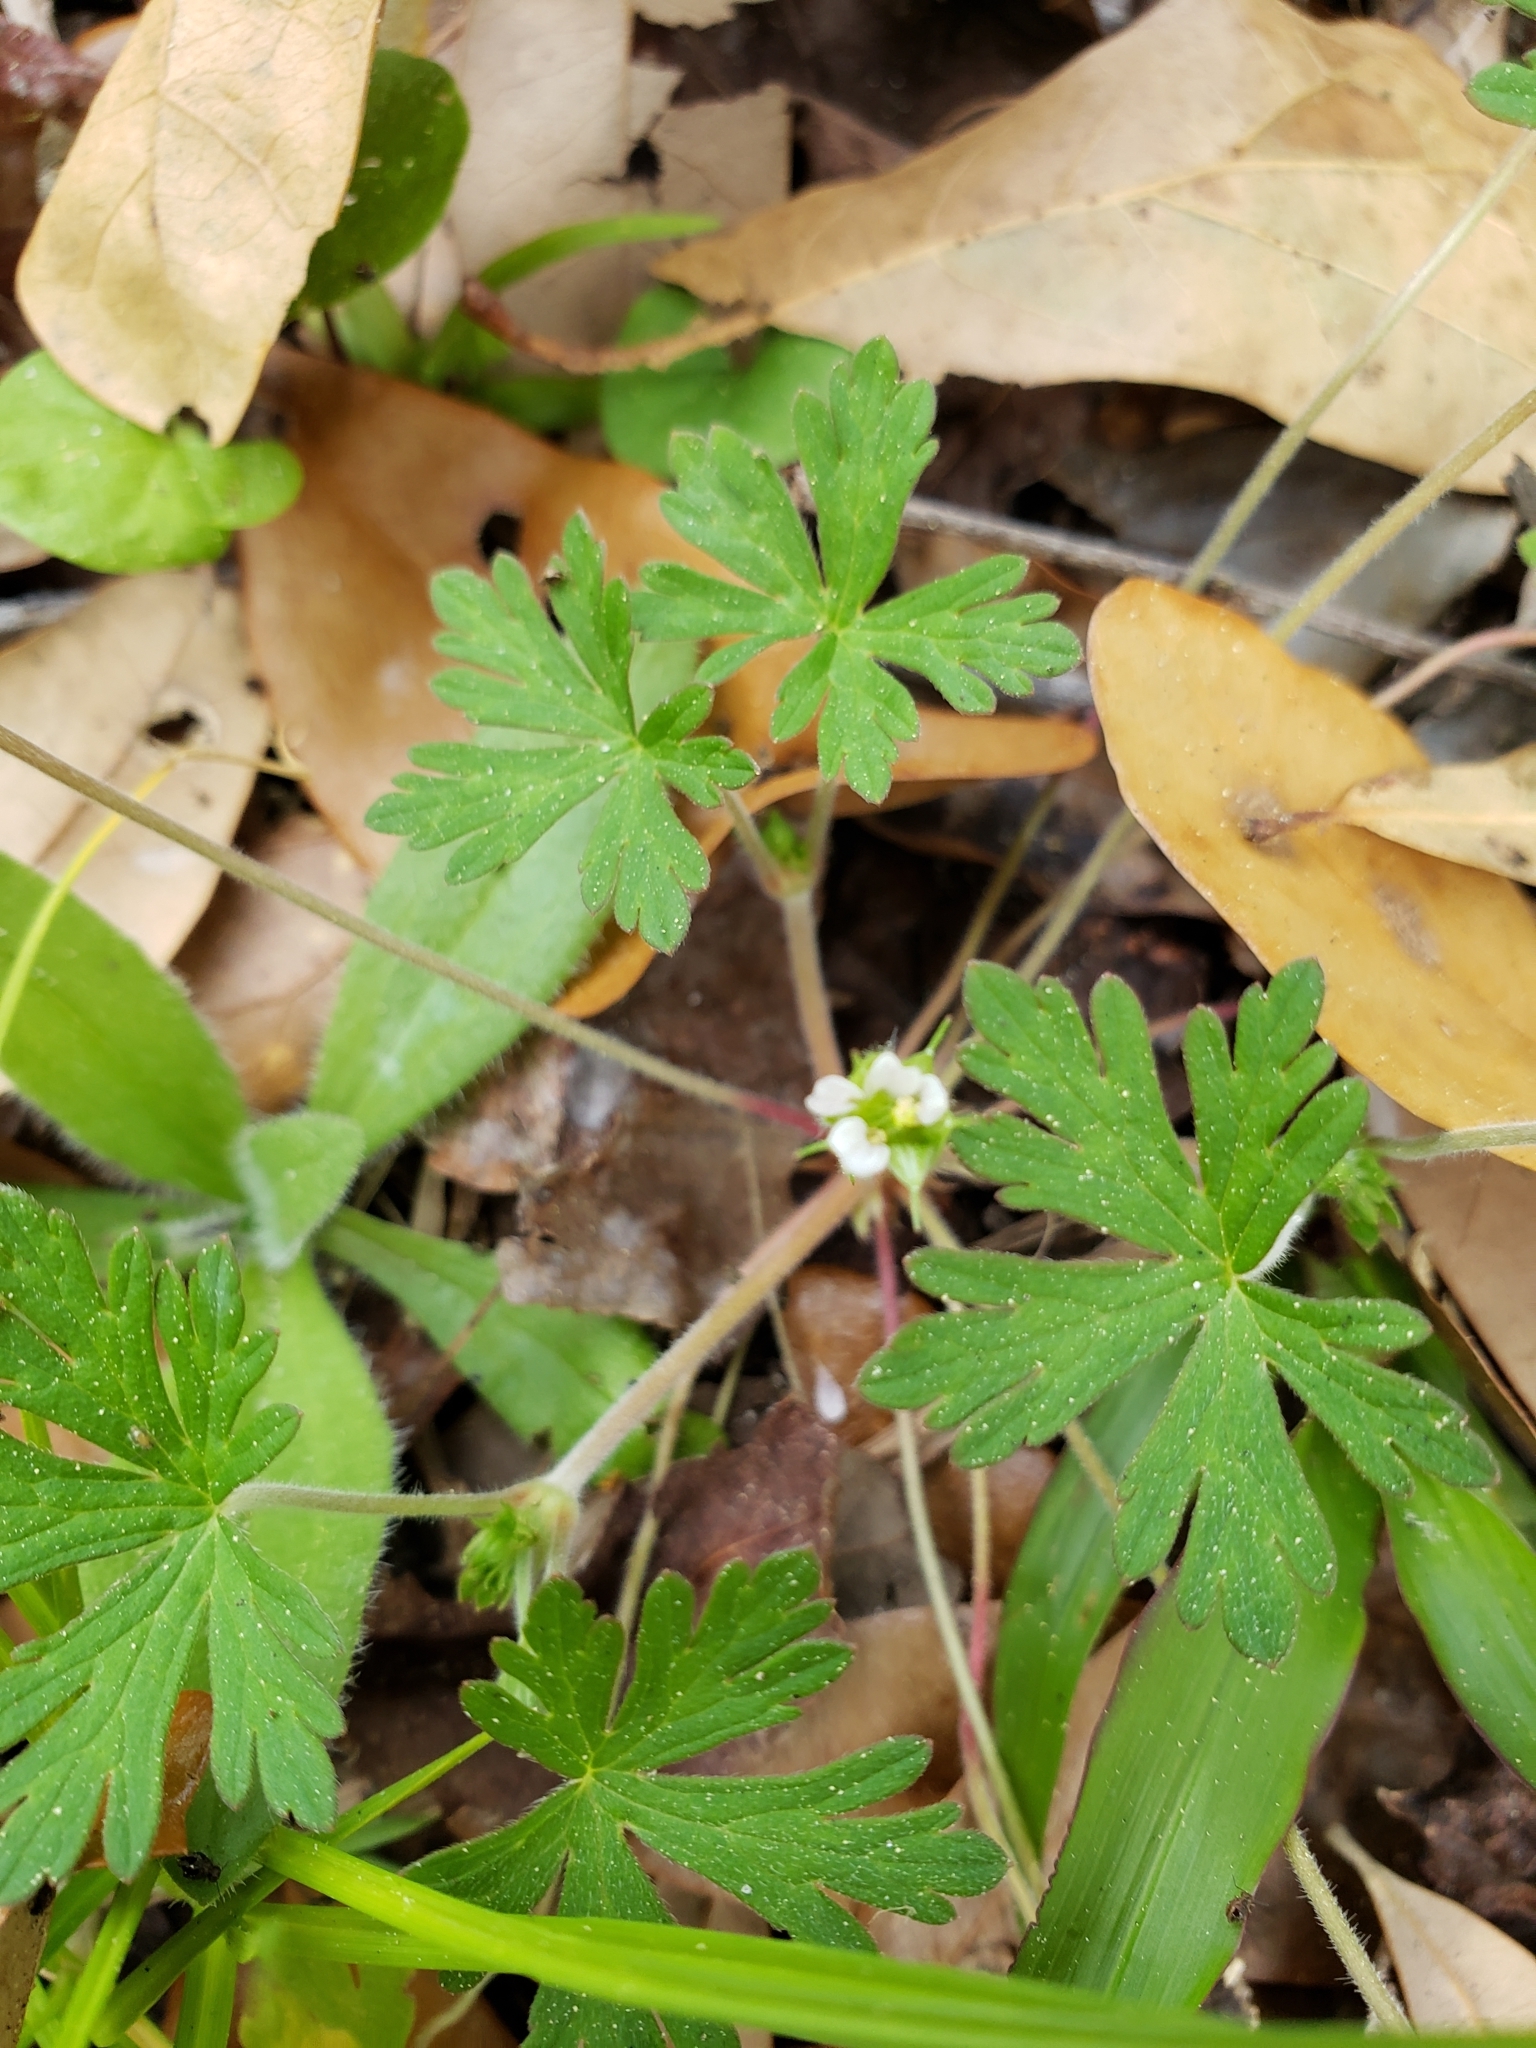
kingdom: Plantae
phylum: Tracheophyta
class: Magnoliopsida
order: Geraniales
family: Geraniaceae
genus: Geranium
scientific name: Geranium carolinianum
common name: Carolina crane's-bill
